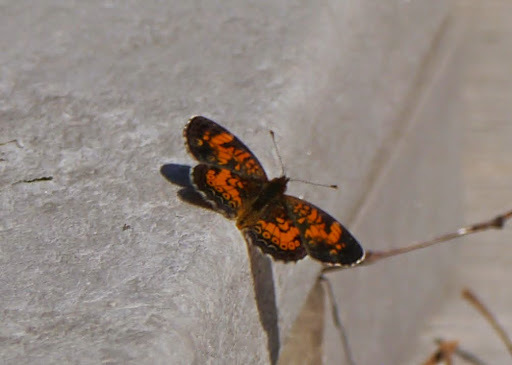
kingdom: Animalia
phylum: Arthropoda
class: Insecta
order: Lepidoptera
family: Nymphalidae
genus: Phyciodes
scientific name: Phyciodes tharos
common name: Pearl crescent
